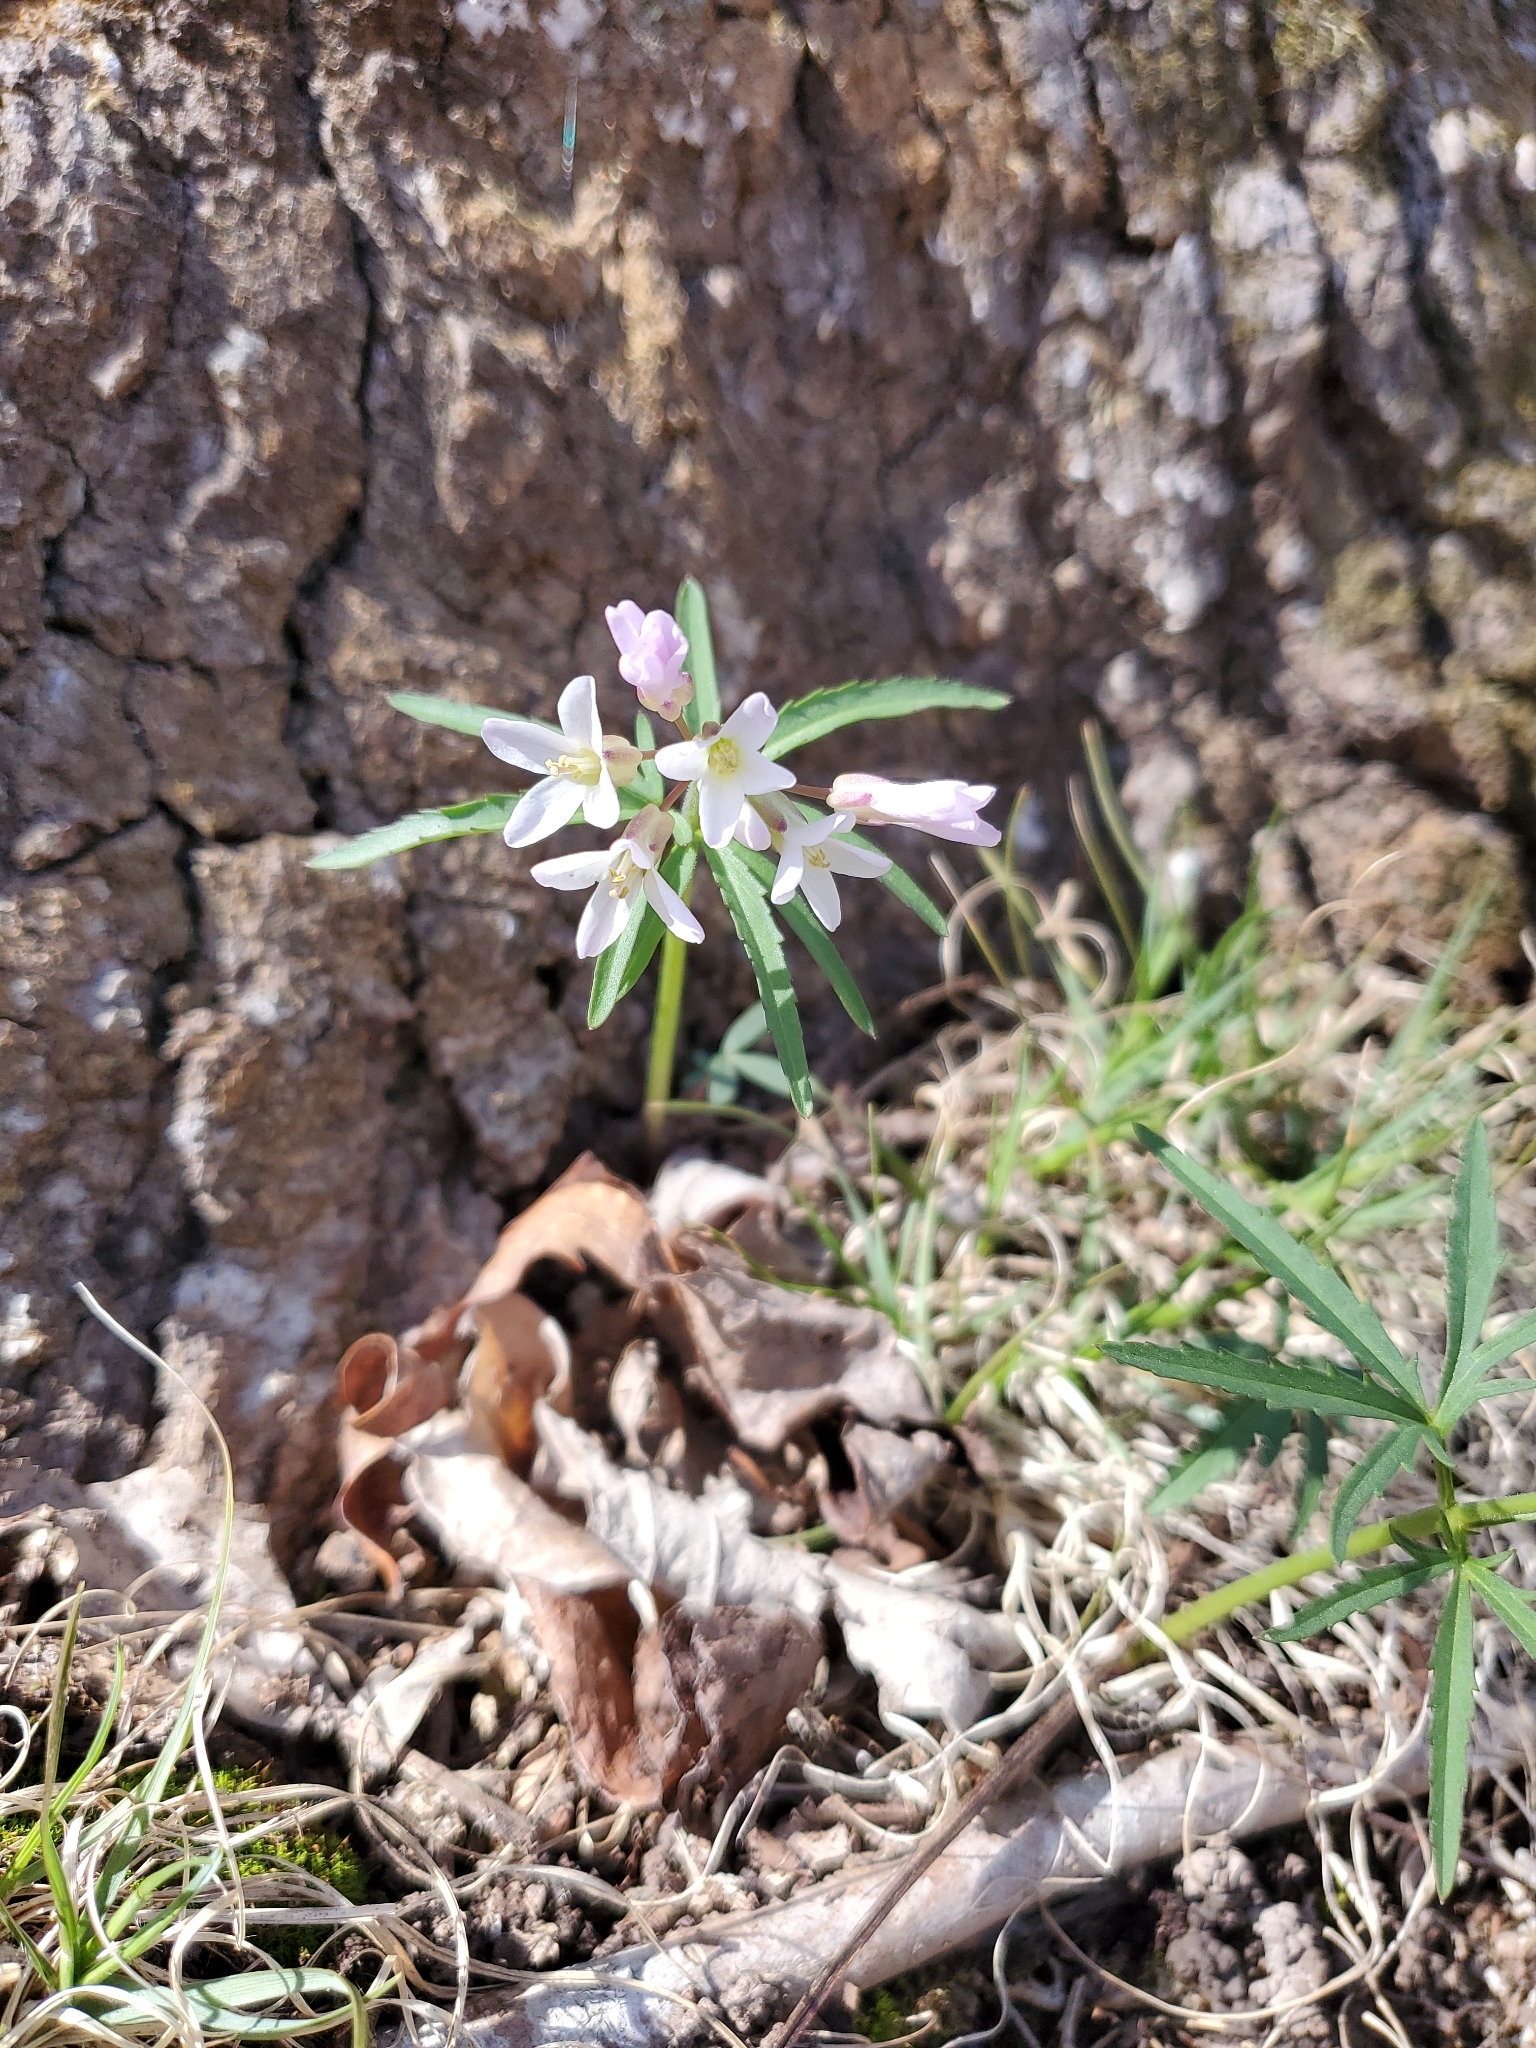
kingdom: Plantae
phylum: Tracheophyta
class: Magnoliopsida
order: Brassicales
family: Brassicaceae
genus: Cardamine
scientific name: Cardamine concatenata
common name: Cut-leaf toothcup
